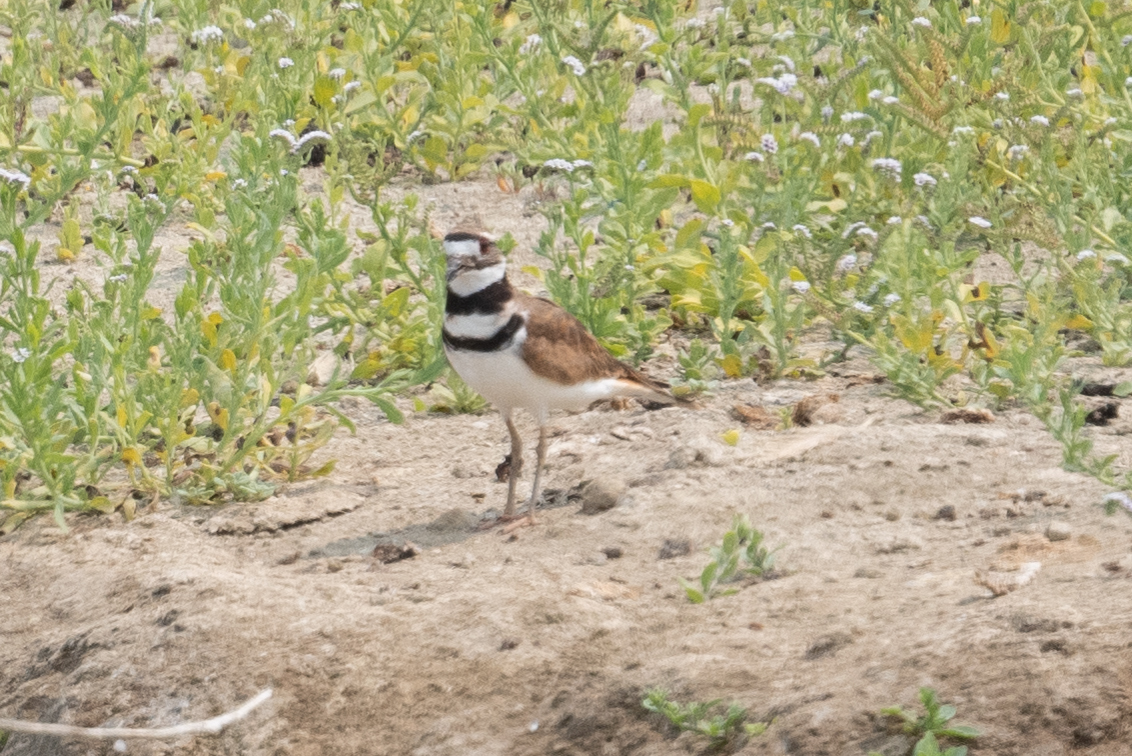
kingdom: Animalia
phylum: Chordata
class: Aves
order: Charadriiformes
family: Charadriidae
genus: Charadrius
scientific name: Charadrius vociferus
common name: Killdeer
